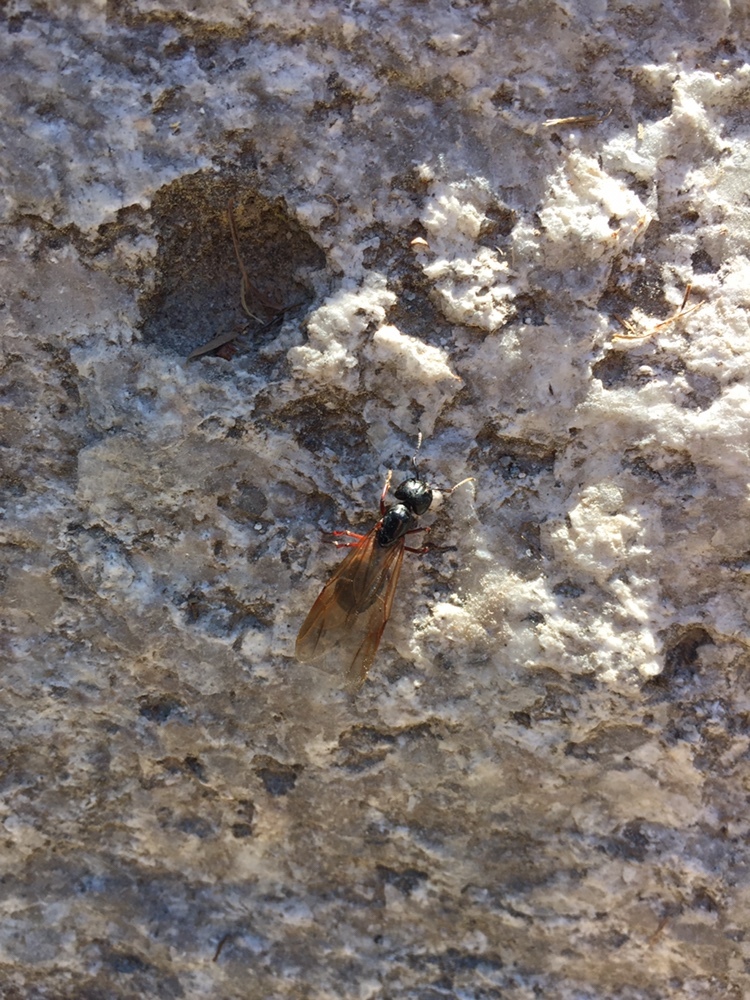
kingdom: Animalia
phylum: Arthropoda
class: Insecta
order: Hymenoptera
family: Formicidae
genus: Camponotus
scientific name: Camponotus modoc
